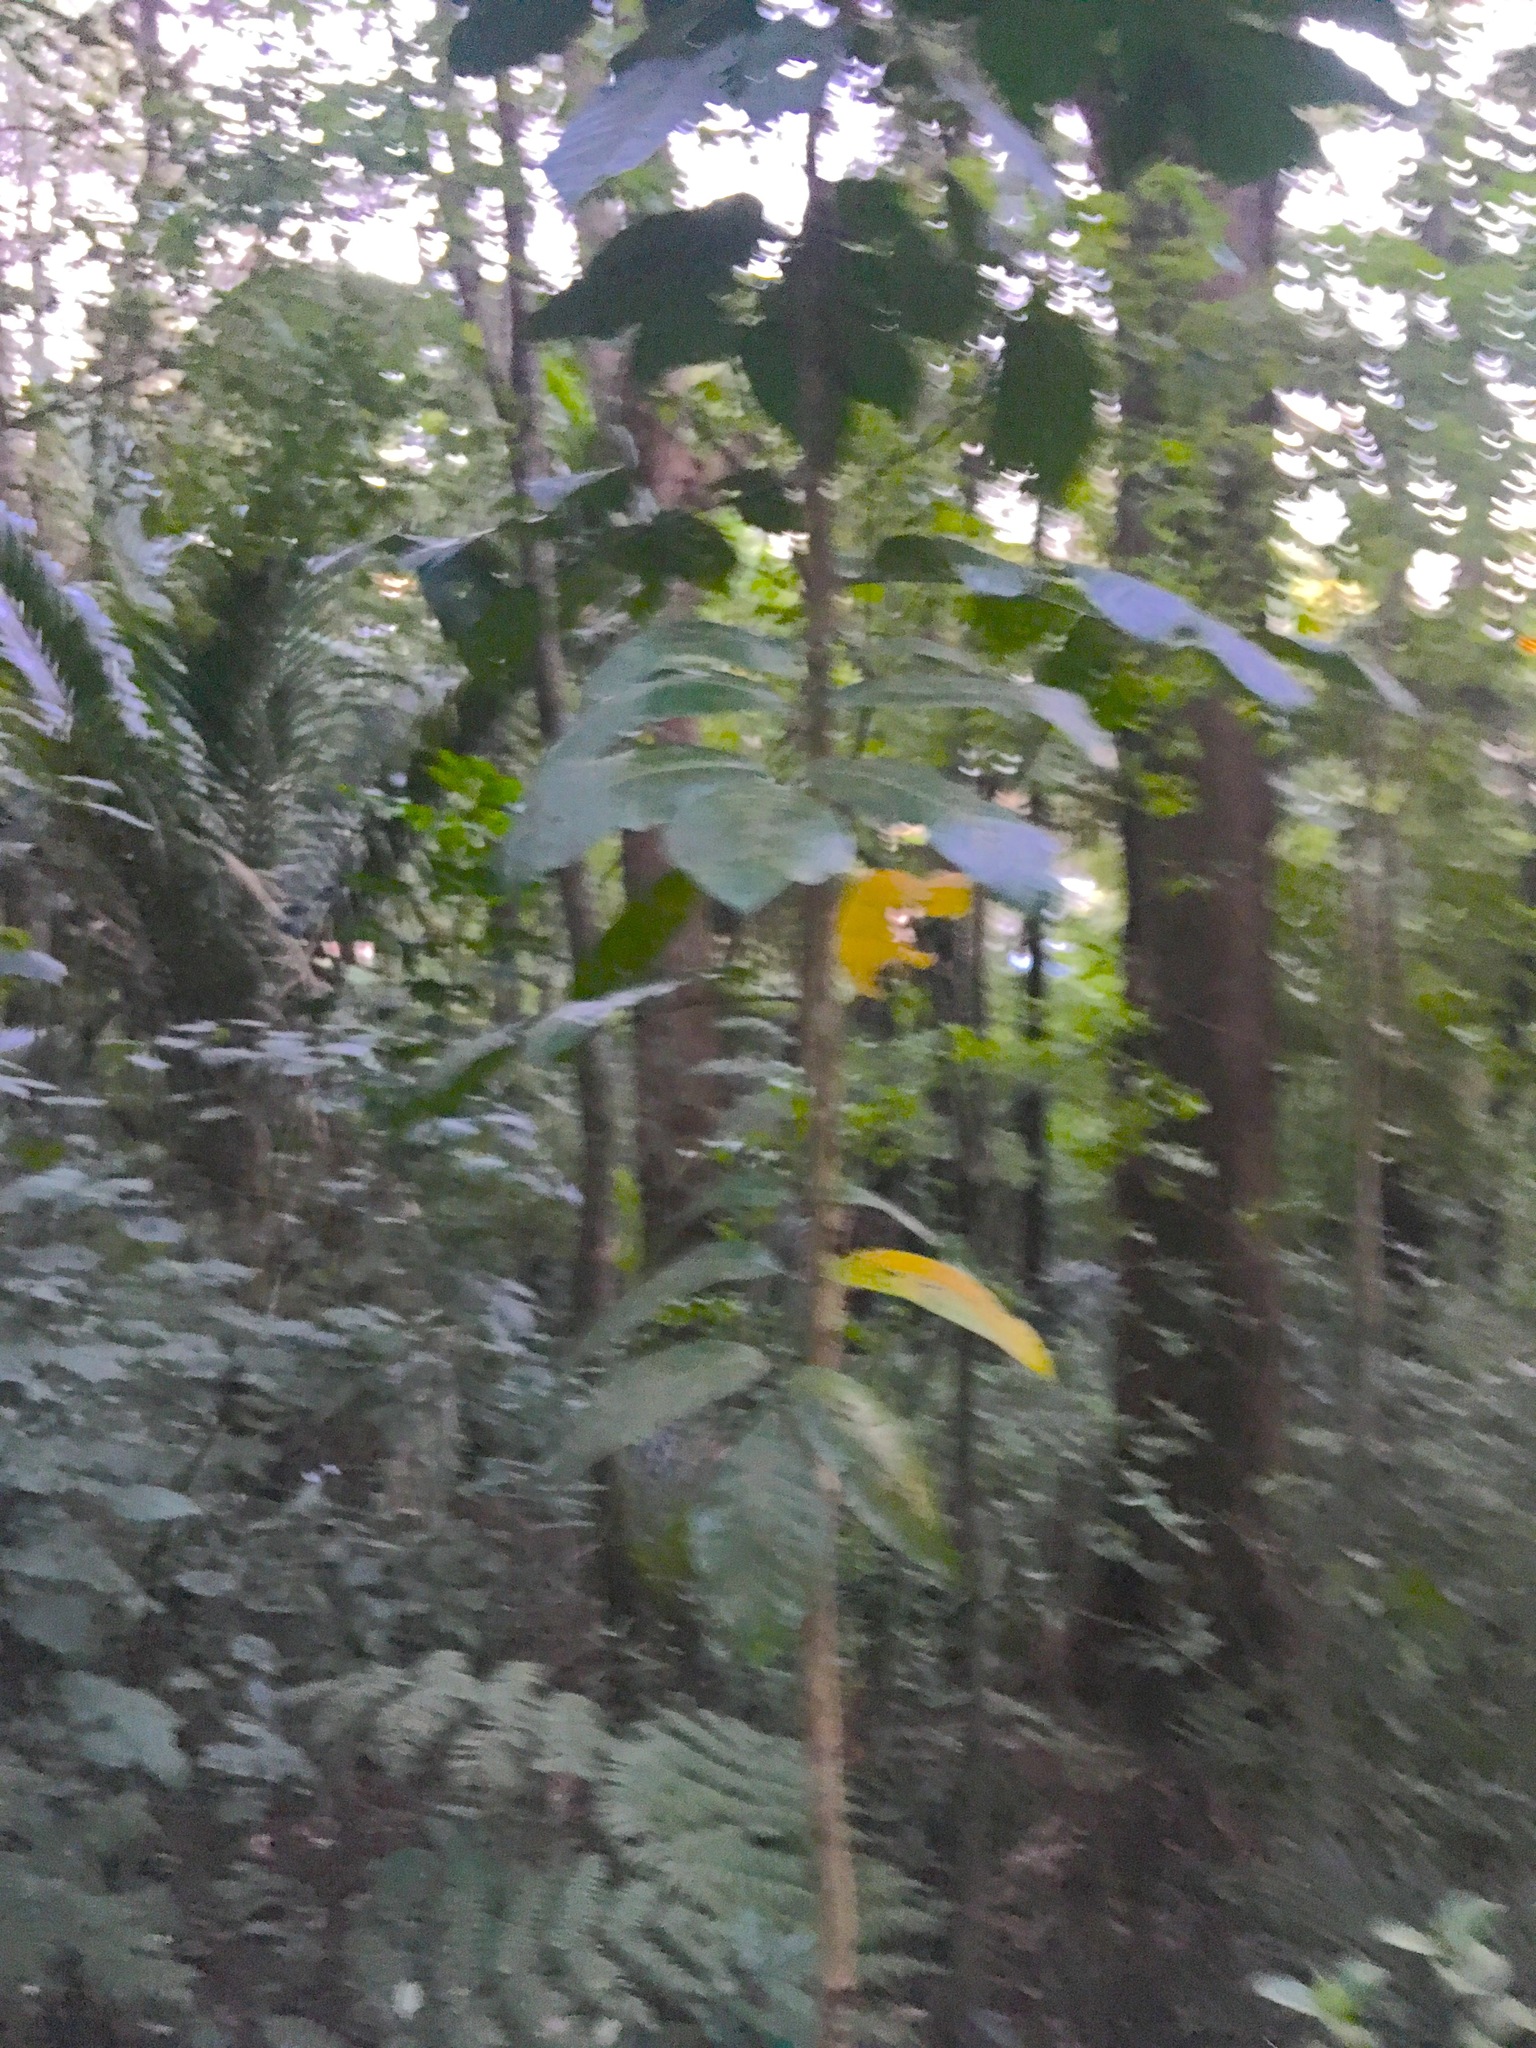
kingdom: Plantae
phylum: Tracheophyta
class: Magnoliopsida
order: Sapindales
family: Meliaceae
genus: Didymocheton
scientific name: Didymocheton spectabilis
